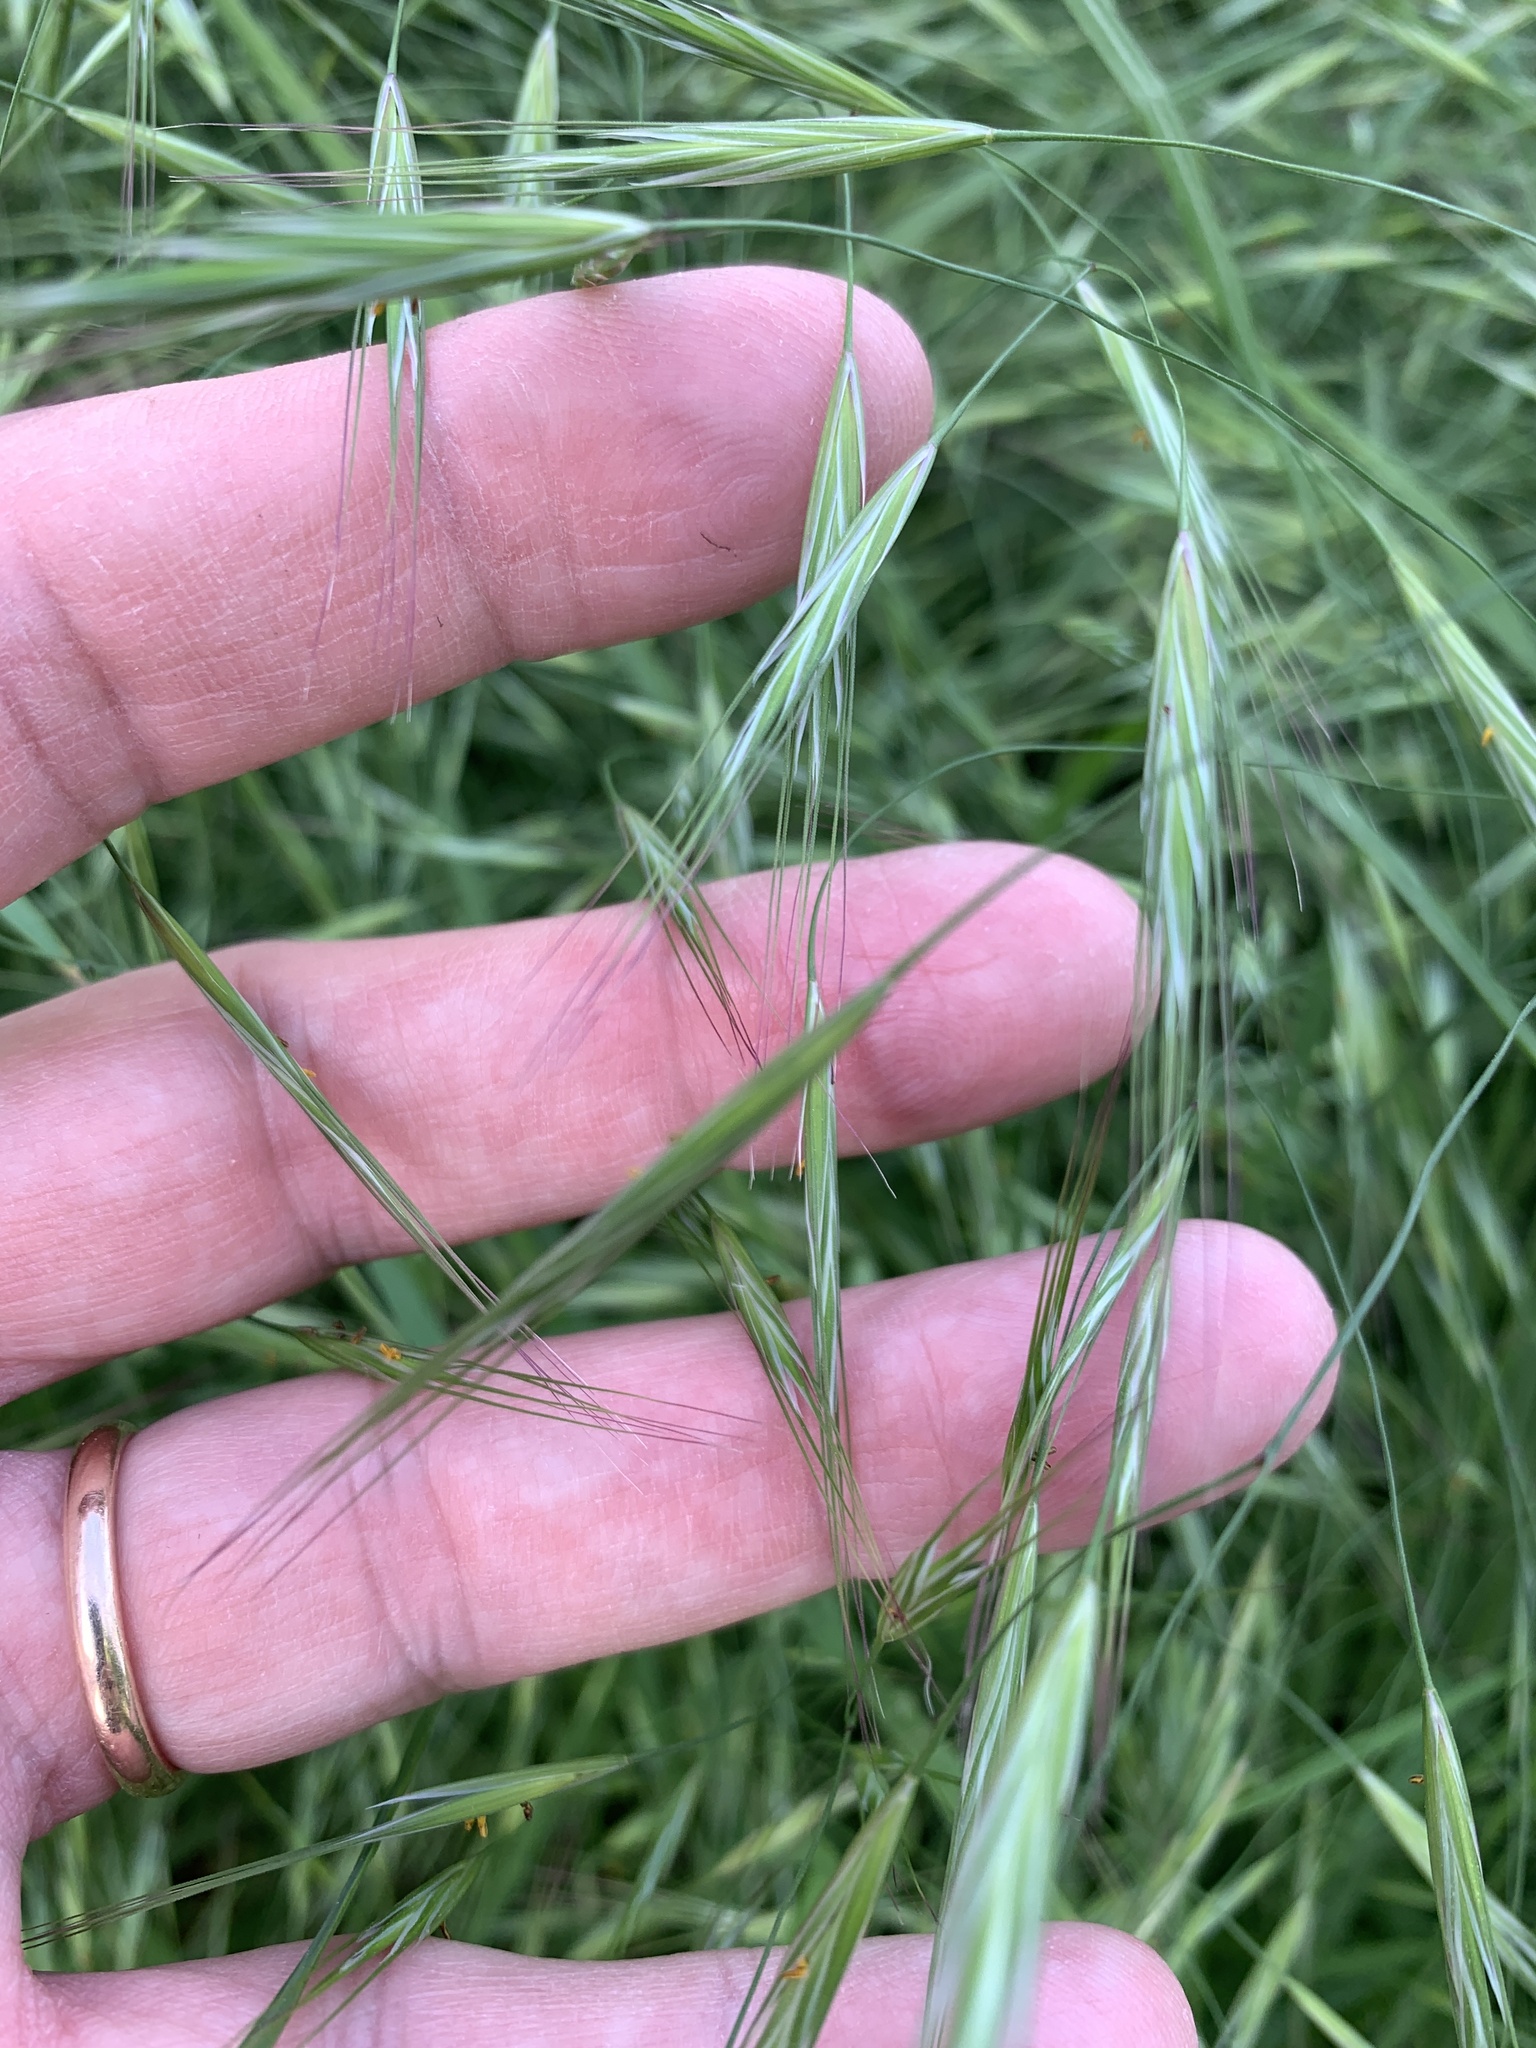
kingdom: Plantae
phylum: Tracheophyta
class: Liliopsida
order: Poales
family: Poaceae
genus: Bromus
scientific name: Bromus sterilis
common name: Poverty brome
